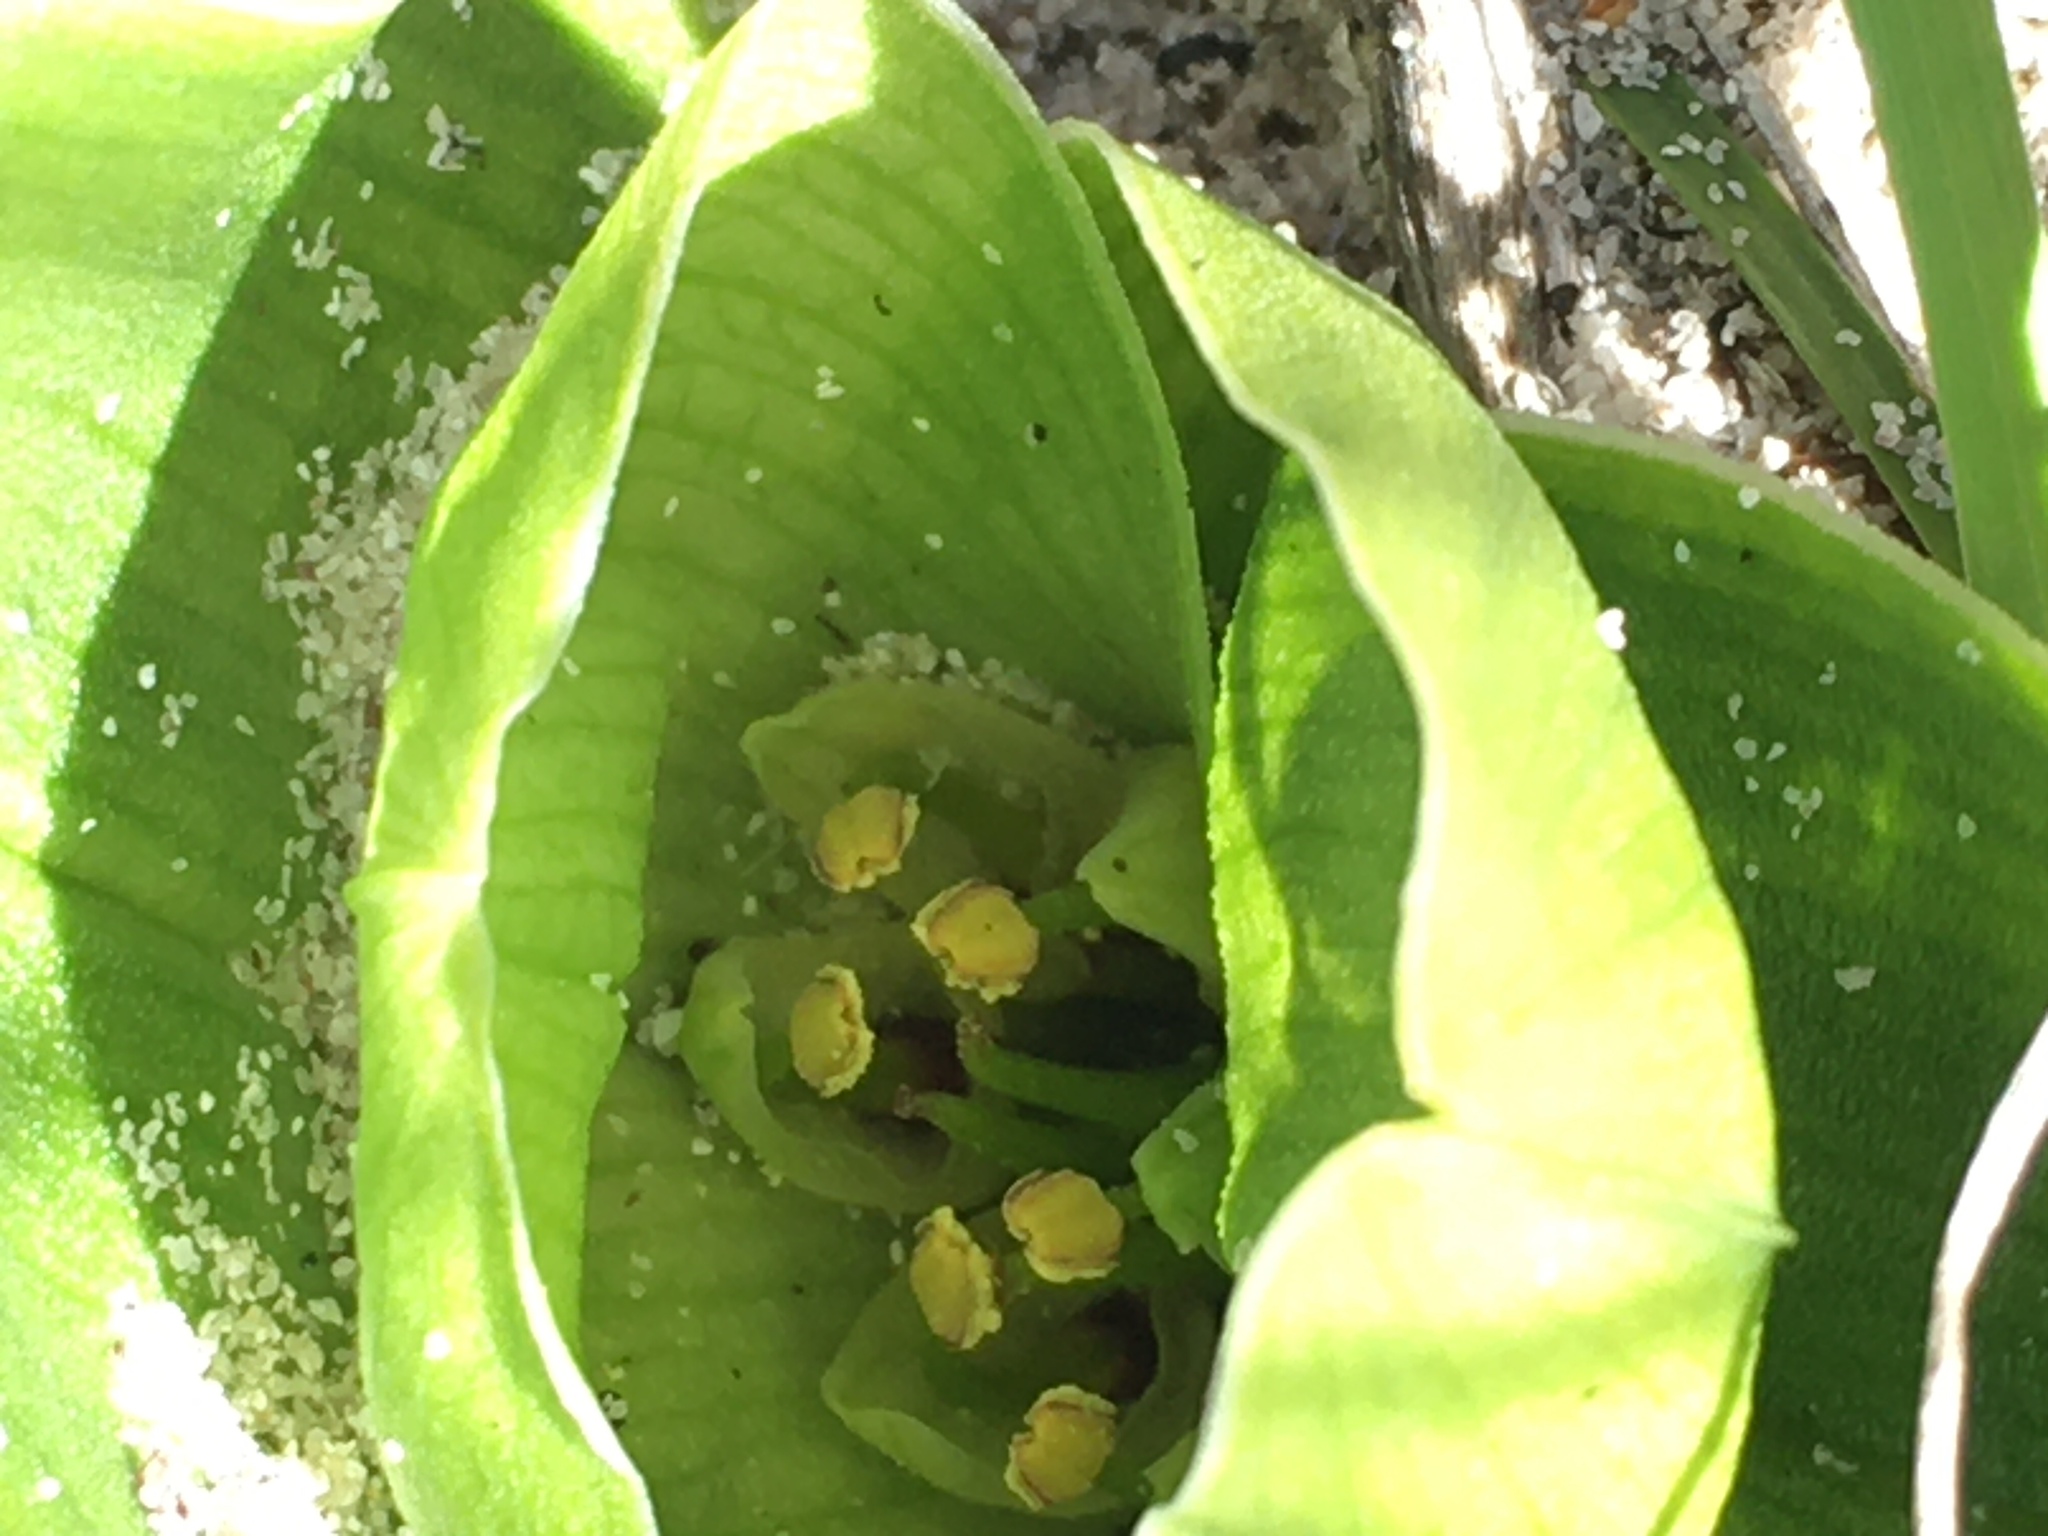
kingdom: Plantae
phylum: Tracheophyta
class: Liliopsida
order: Liliales
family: Colchicaceae
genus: Colchicum
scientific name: Colchicum eucomoides
